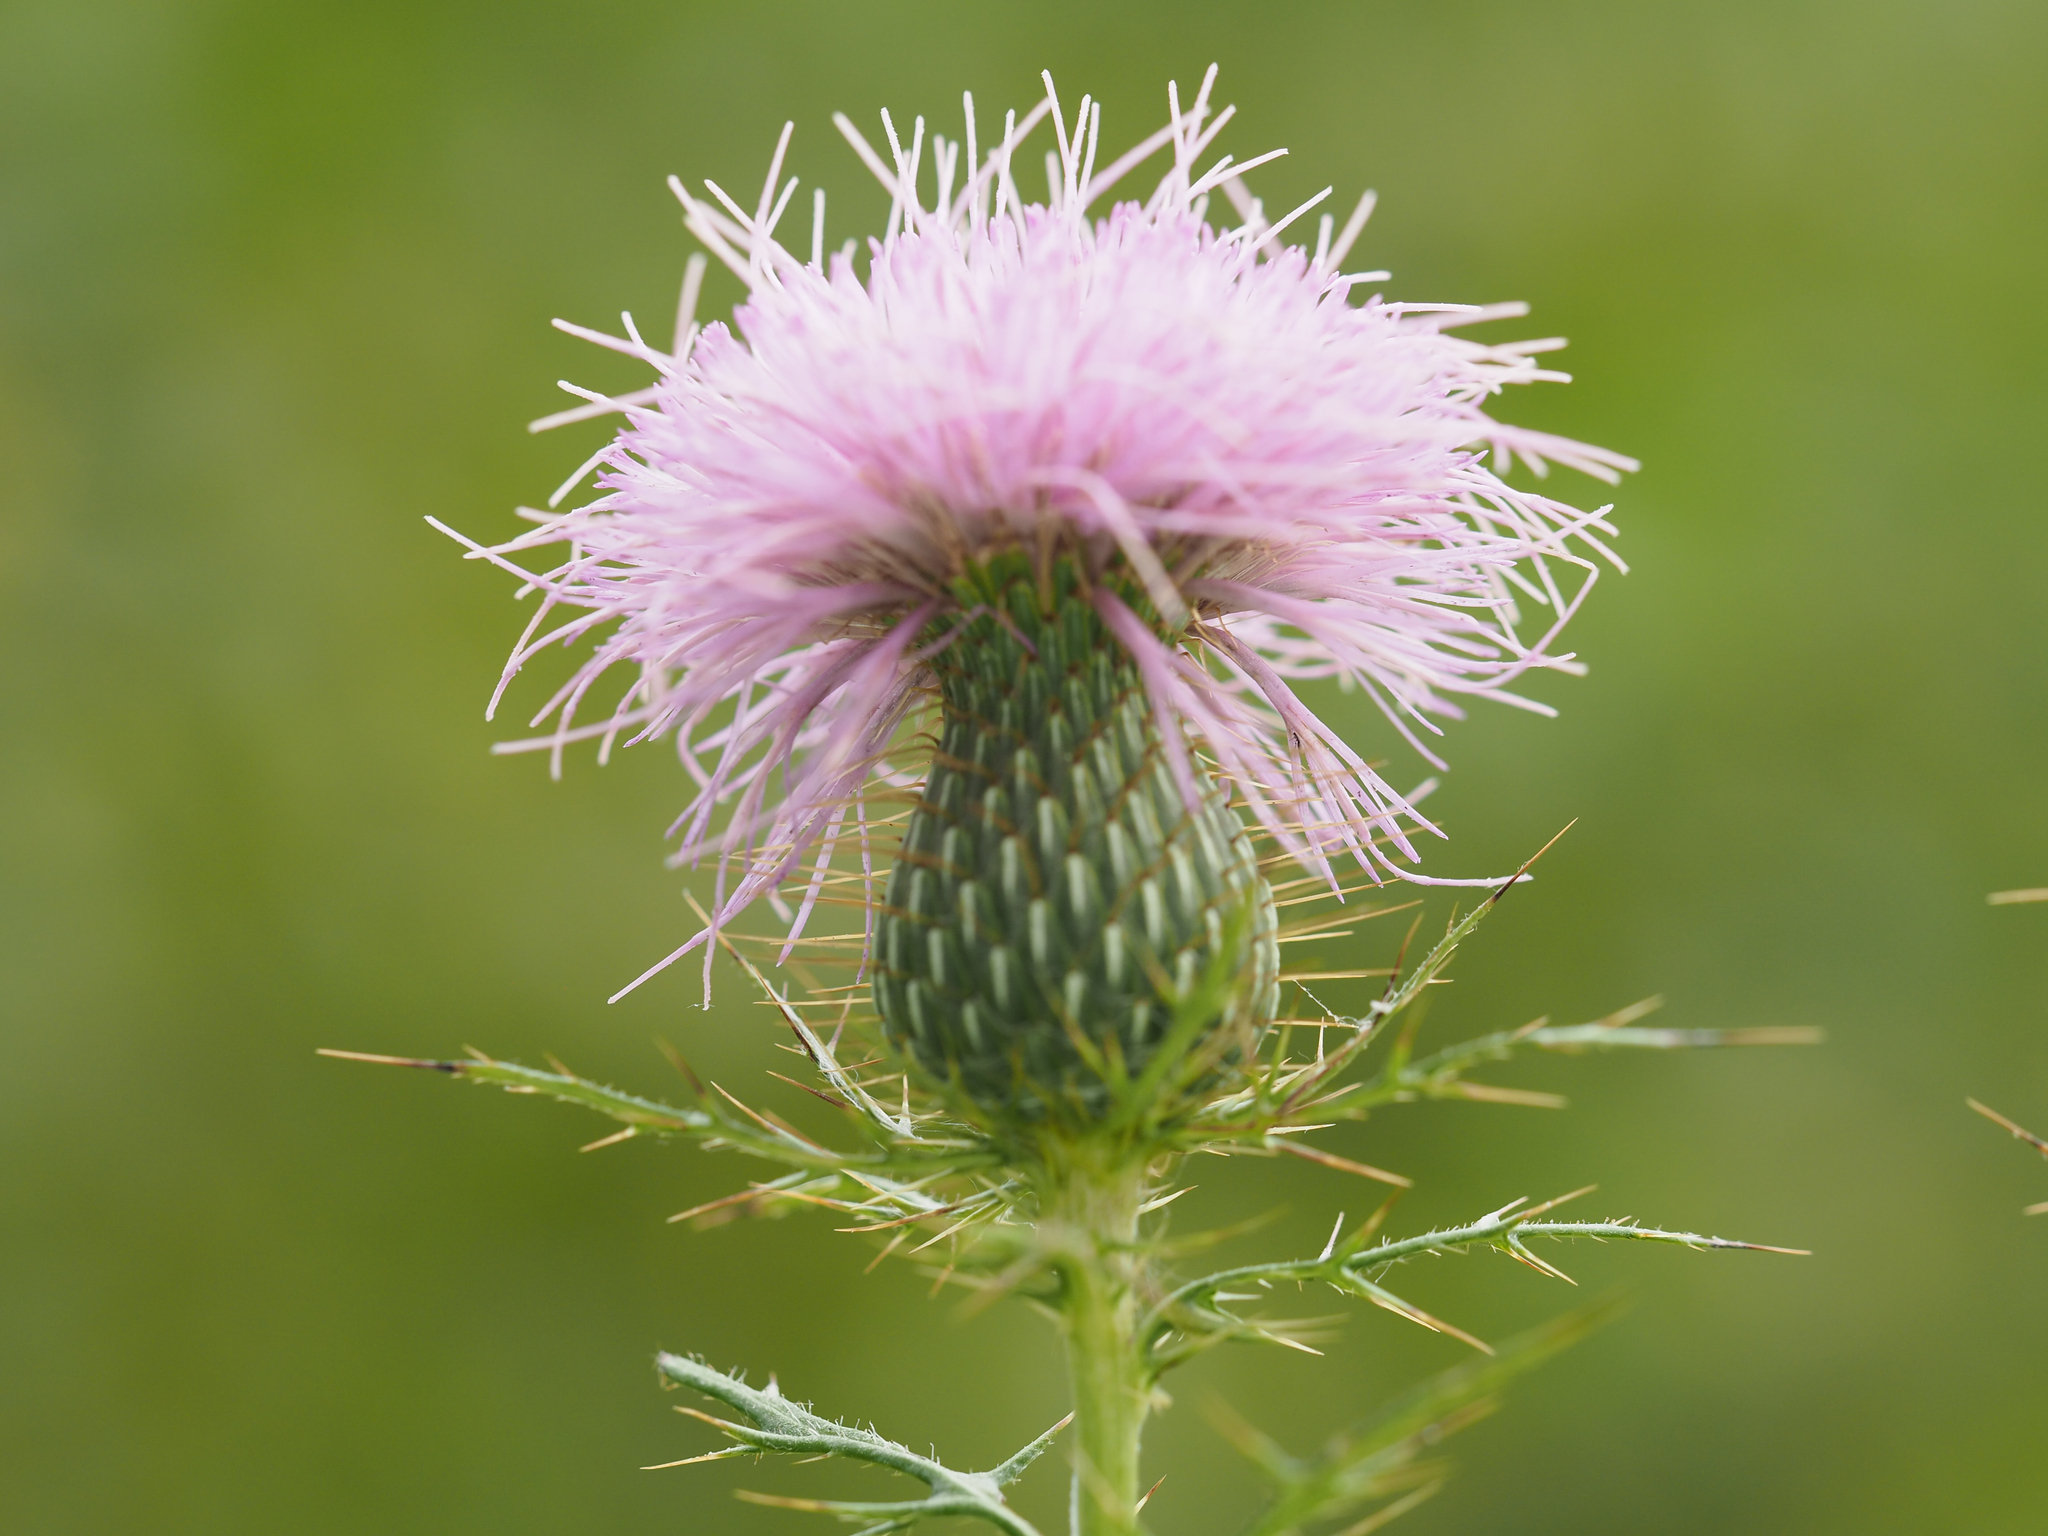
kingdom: Plantae
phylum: Tracheophyta
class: Magnoliopsida
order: Asterales
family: Asteraceae
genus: Cirsium
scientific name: Cirsium discolor
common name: Field thistle
